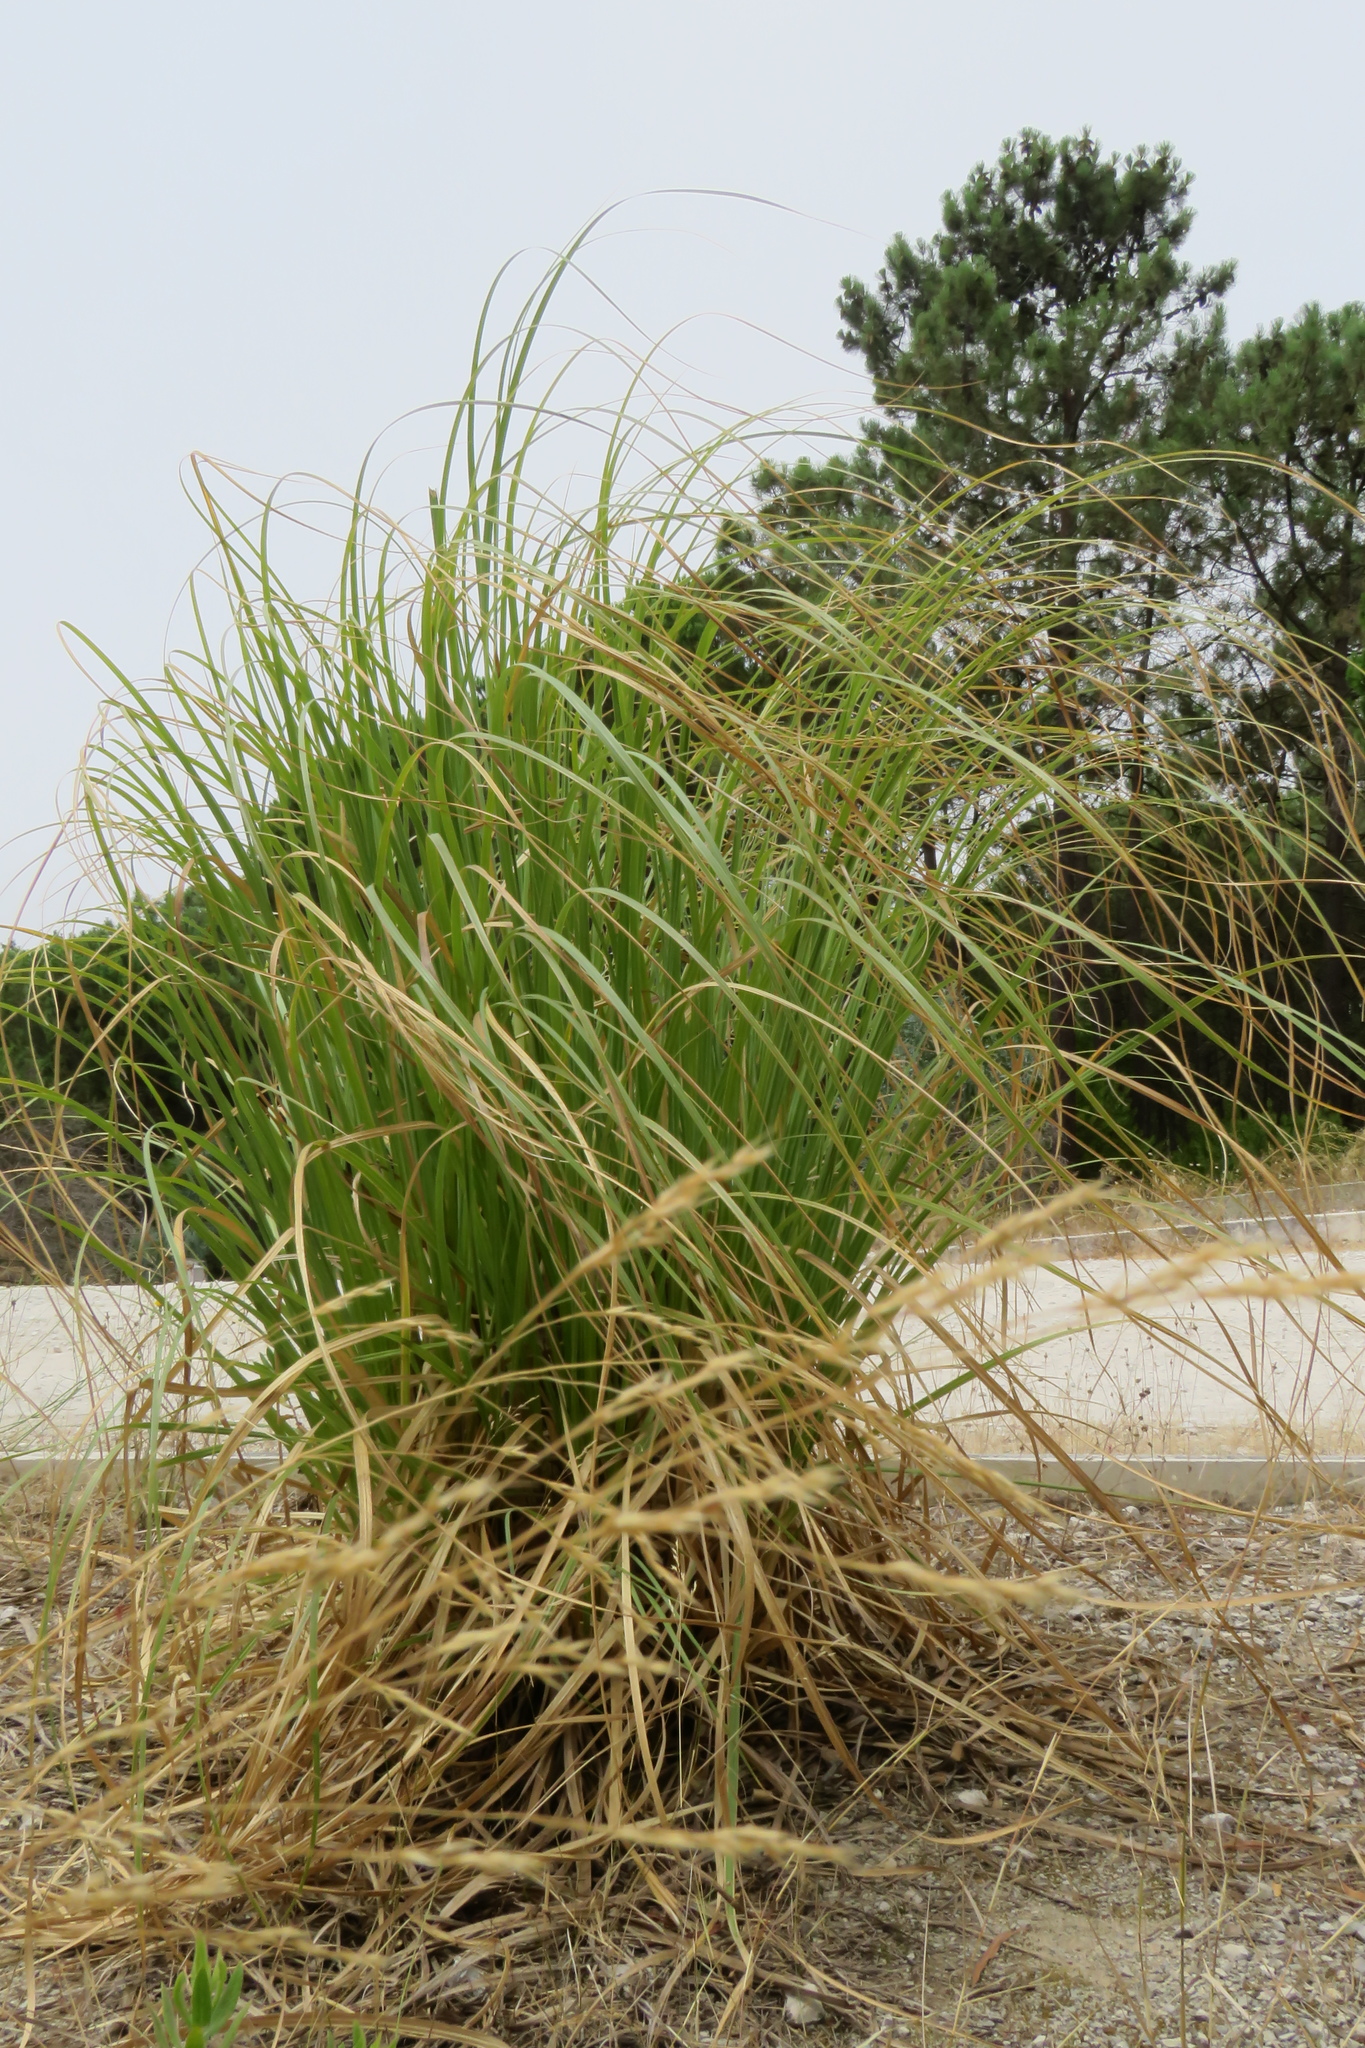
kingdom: Plantae
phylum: Tracheophyta
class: Liliopsida
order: Poales
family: Poaceae
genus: Cortaderia
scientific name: Cortaderia selloana
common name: Uruguayan pampas grass
